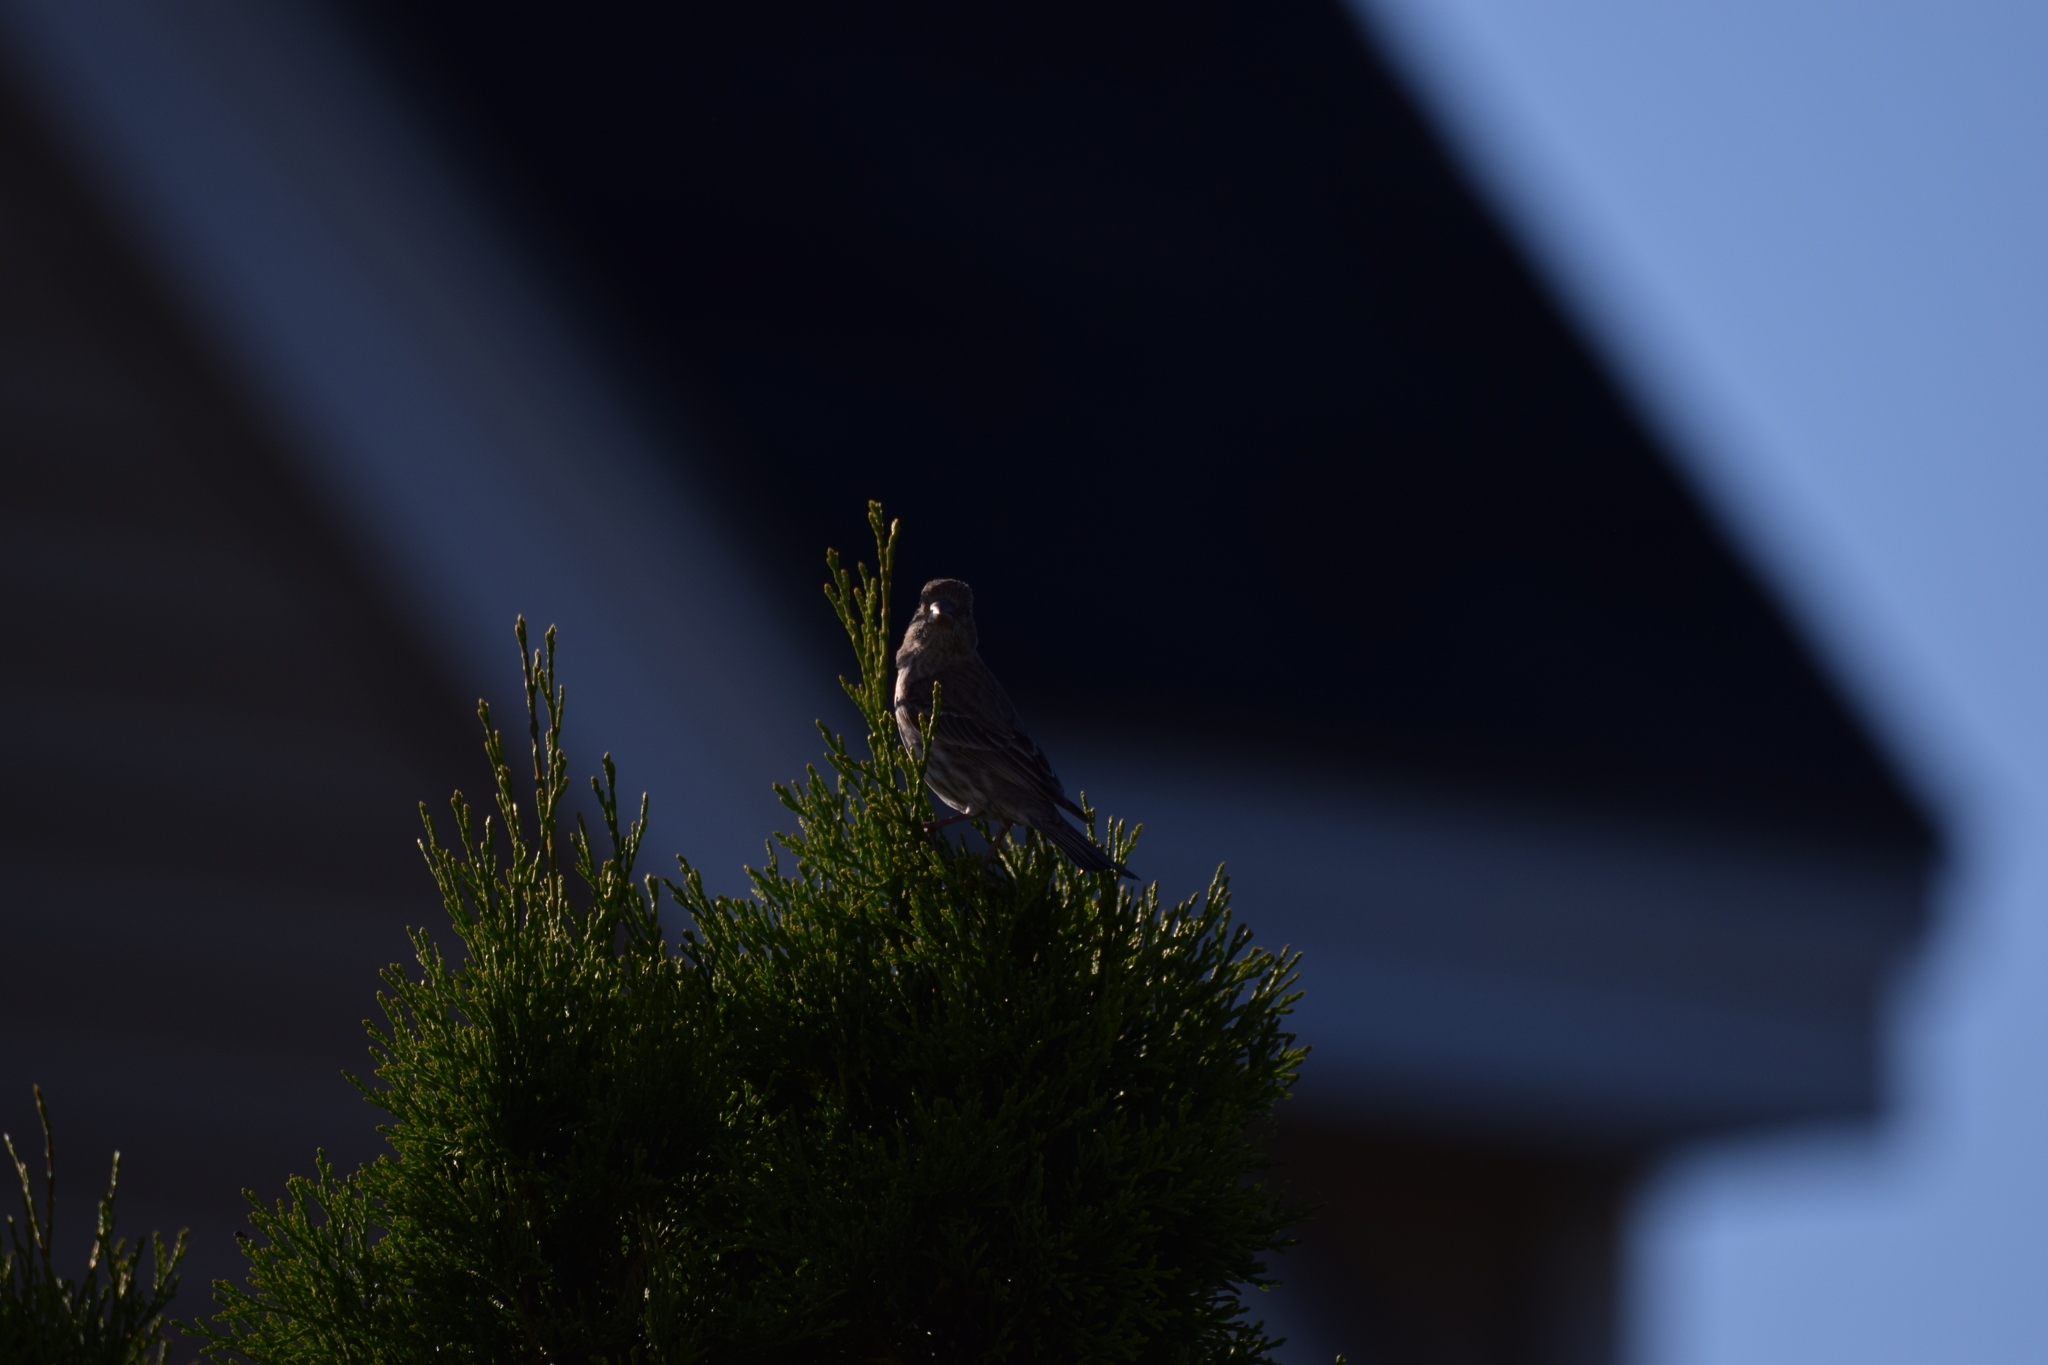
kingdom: Animalia
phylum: Chordata
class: Aves
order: Passeriformes
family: Fringillidae
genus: Haemorhous
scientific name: Haemorhous mexicanus
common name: House finch
